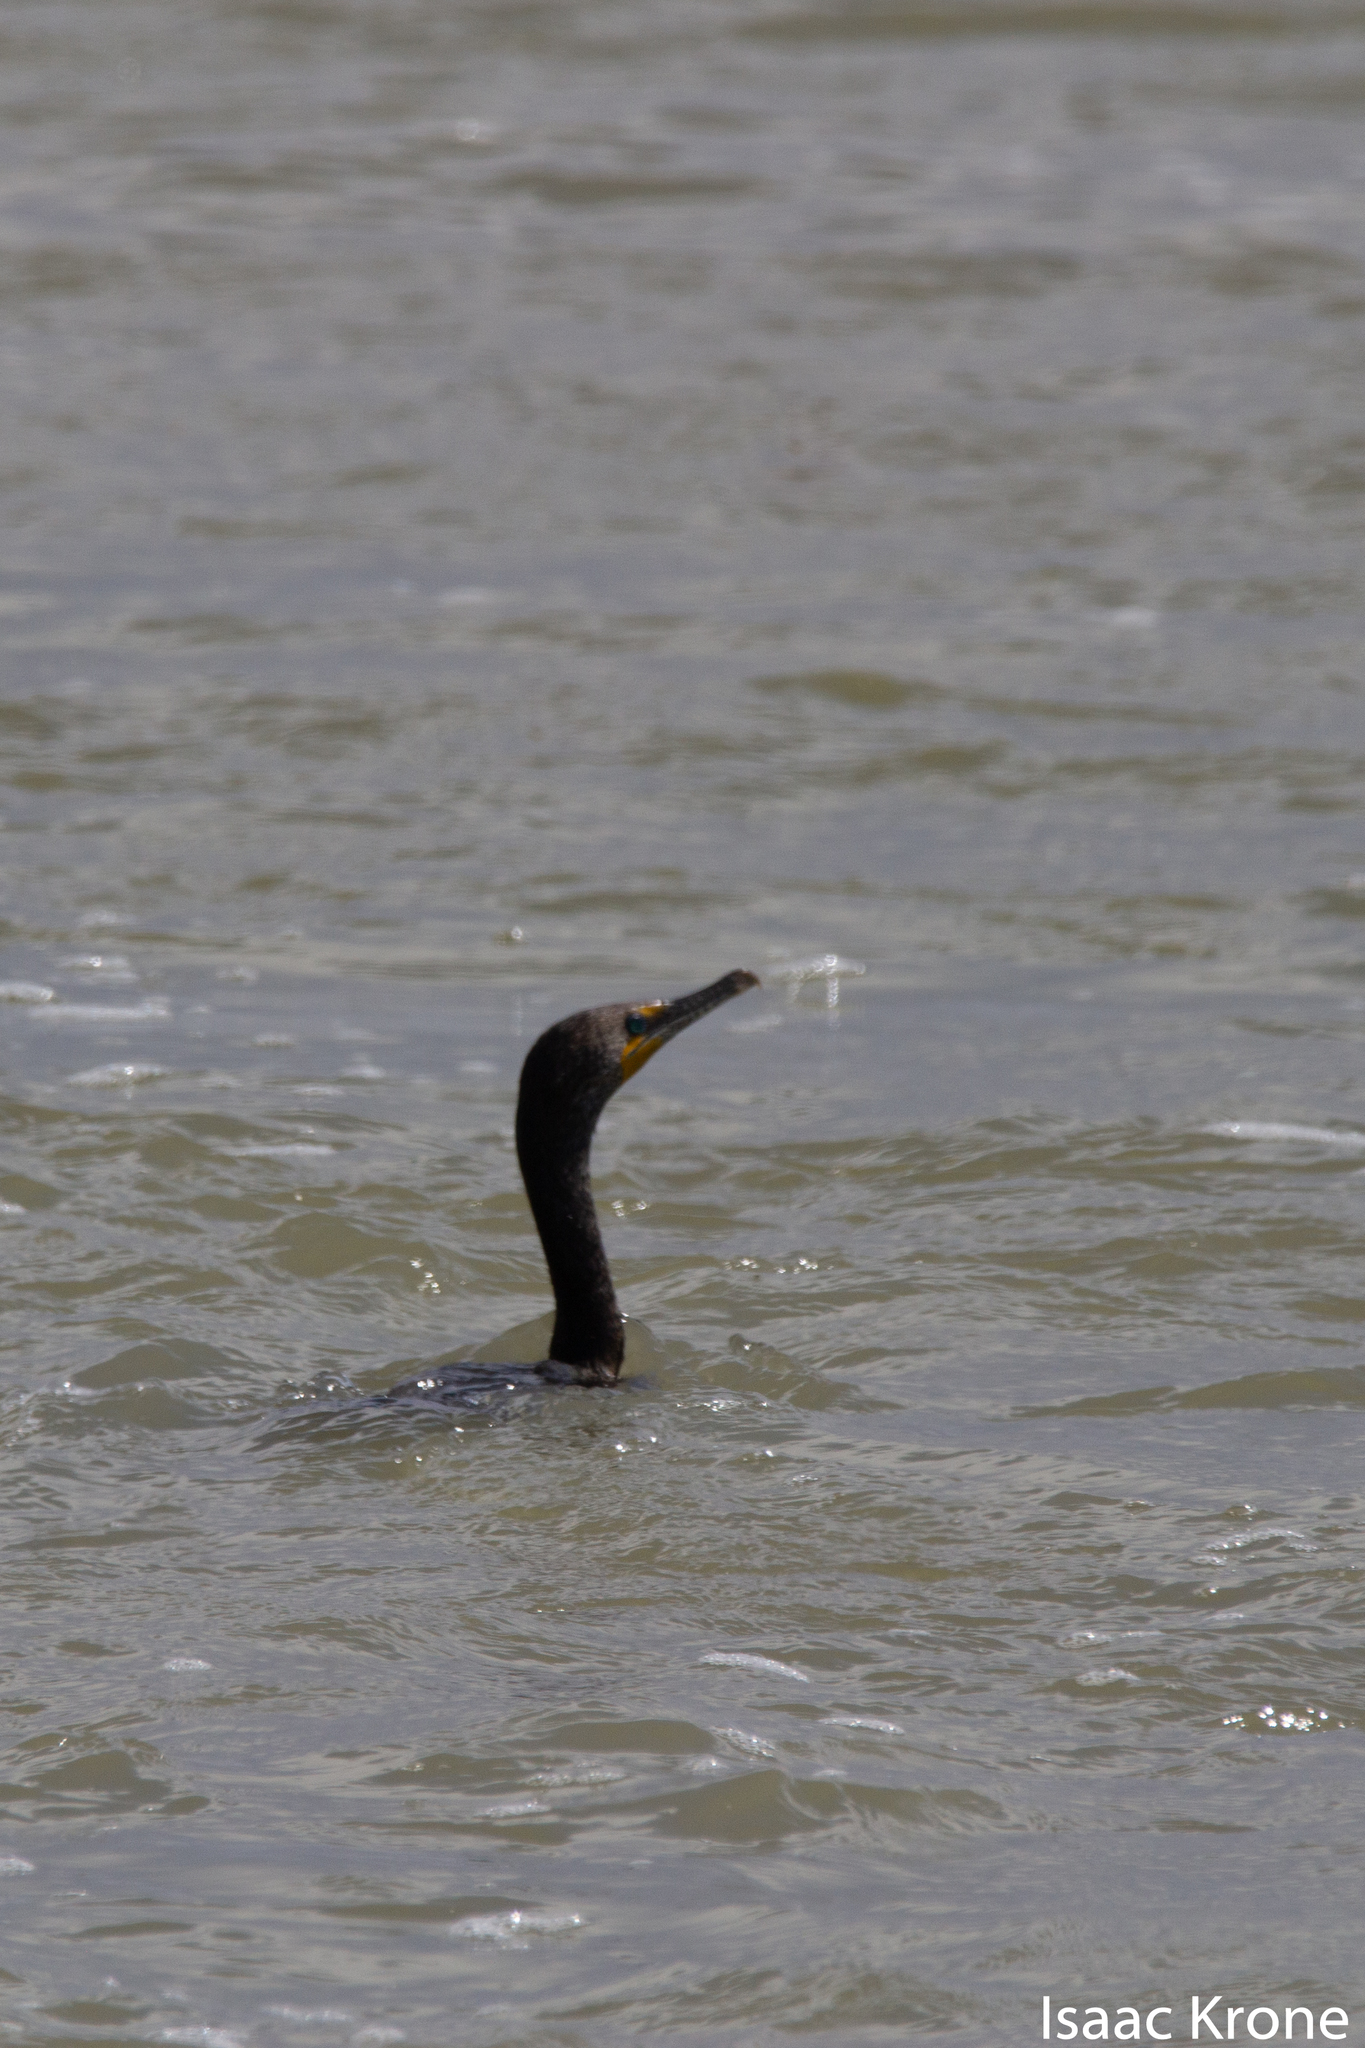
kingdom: Animalia
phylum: Chordata
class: Aves
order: Suliformes
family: Phalacrocoracidae
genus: Phalacrocorax
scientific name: Phalacrocorax auritus
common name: Double-crested cormorant
